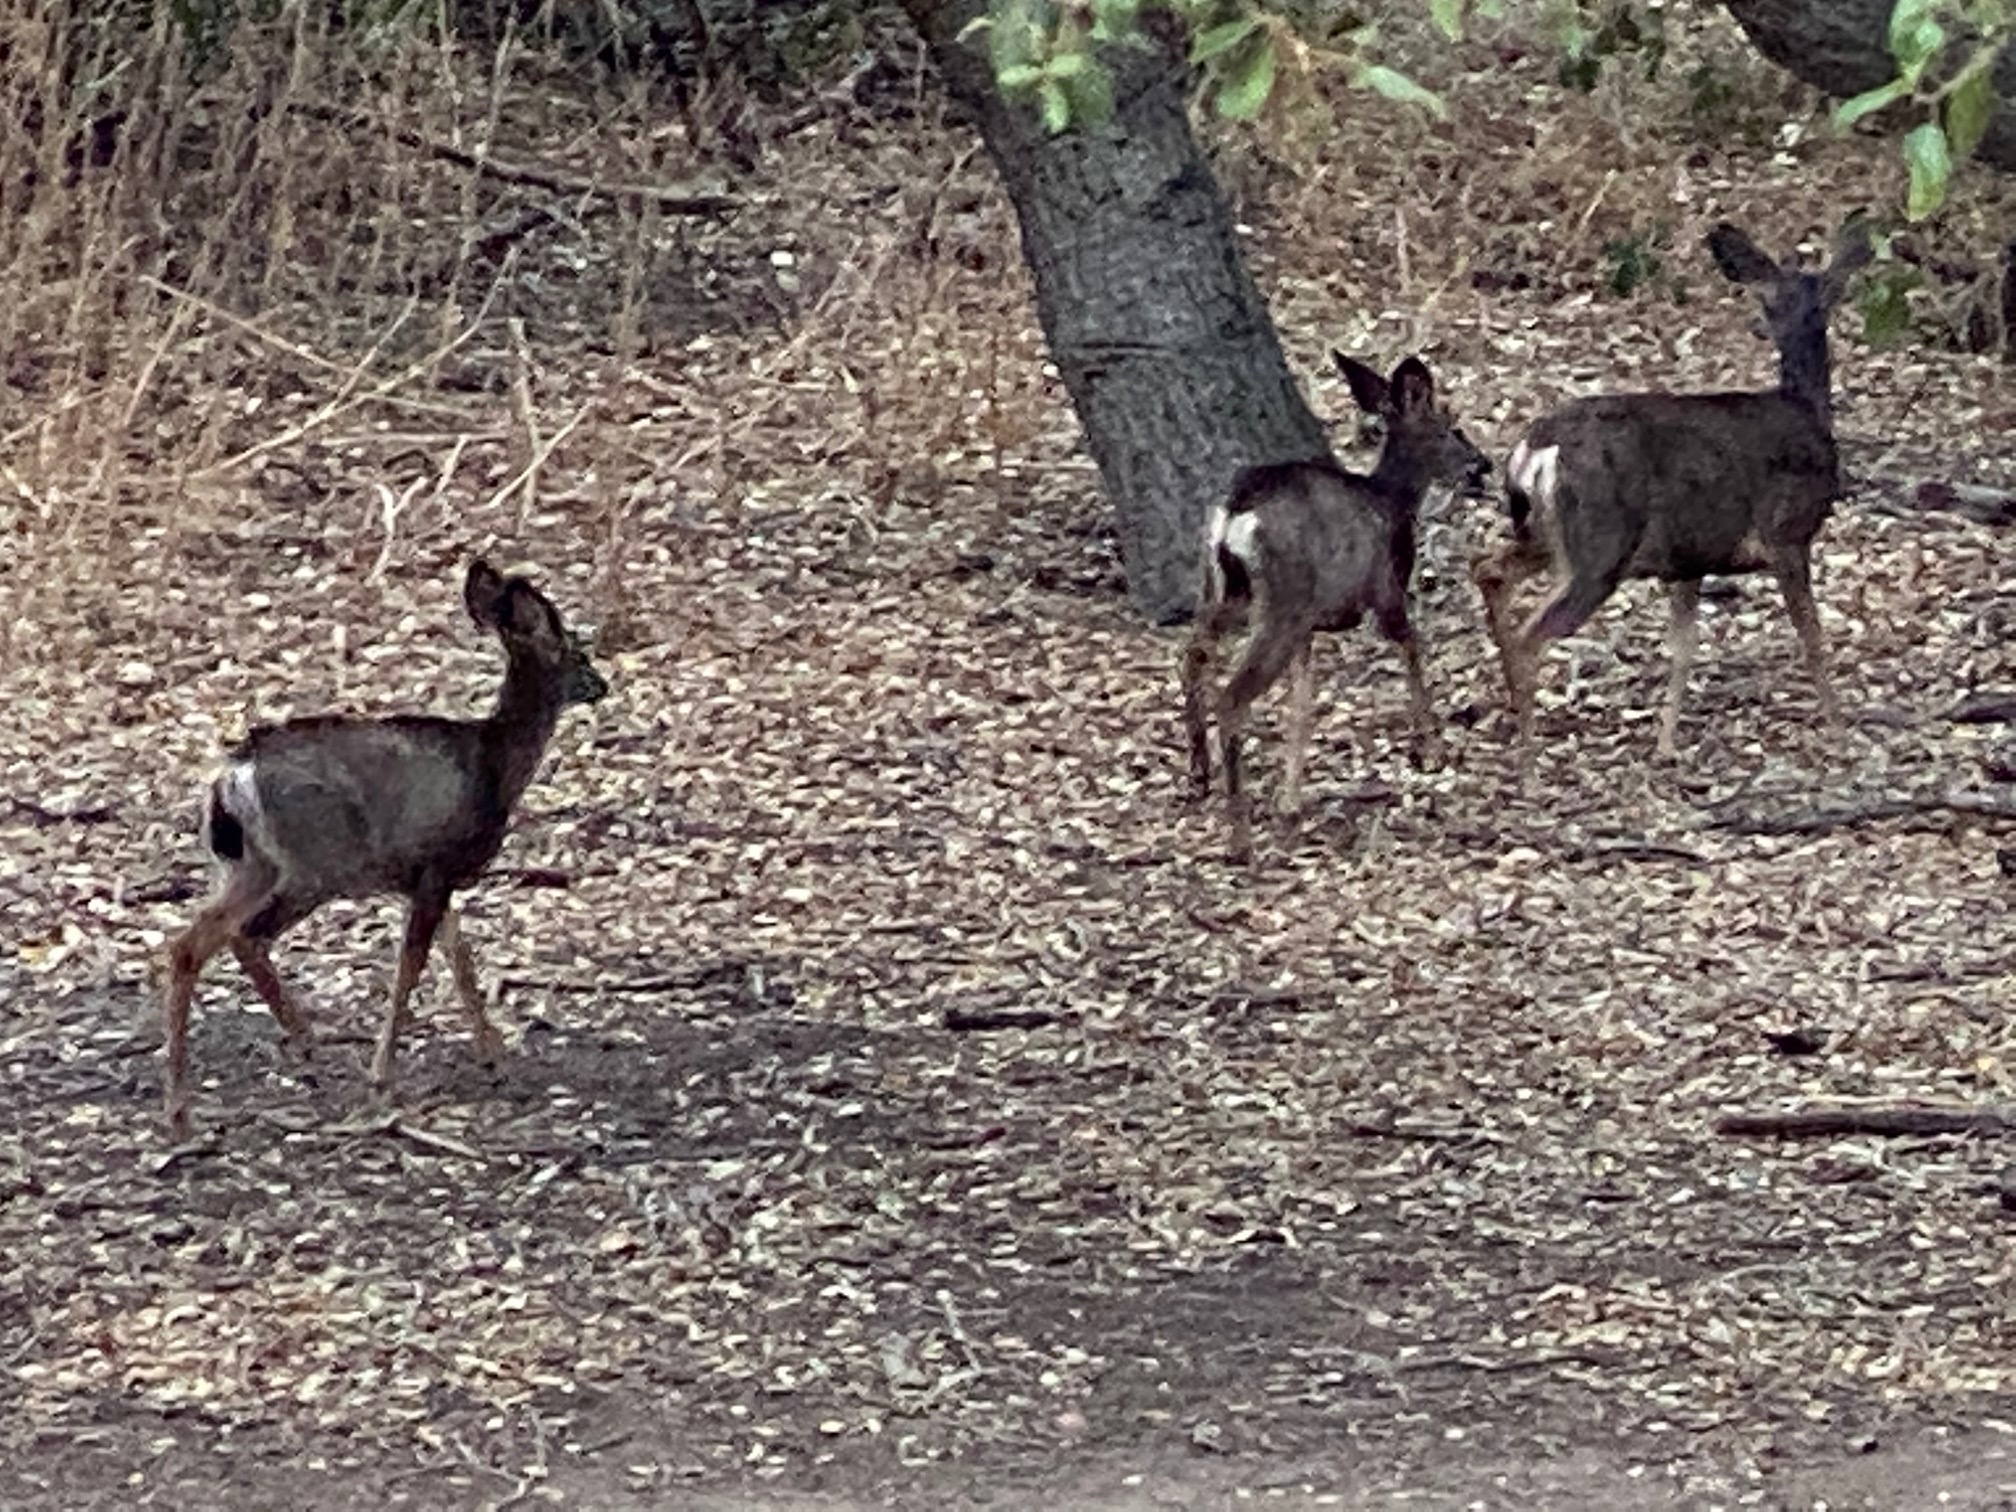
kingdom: Animalia
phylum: Chordata
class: Mammalia
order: Artiodactyla
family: Cervidae
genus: Odocoileus
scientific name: Odocoileus hemionus
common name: Mule deer
